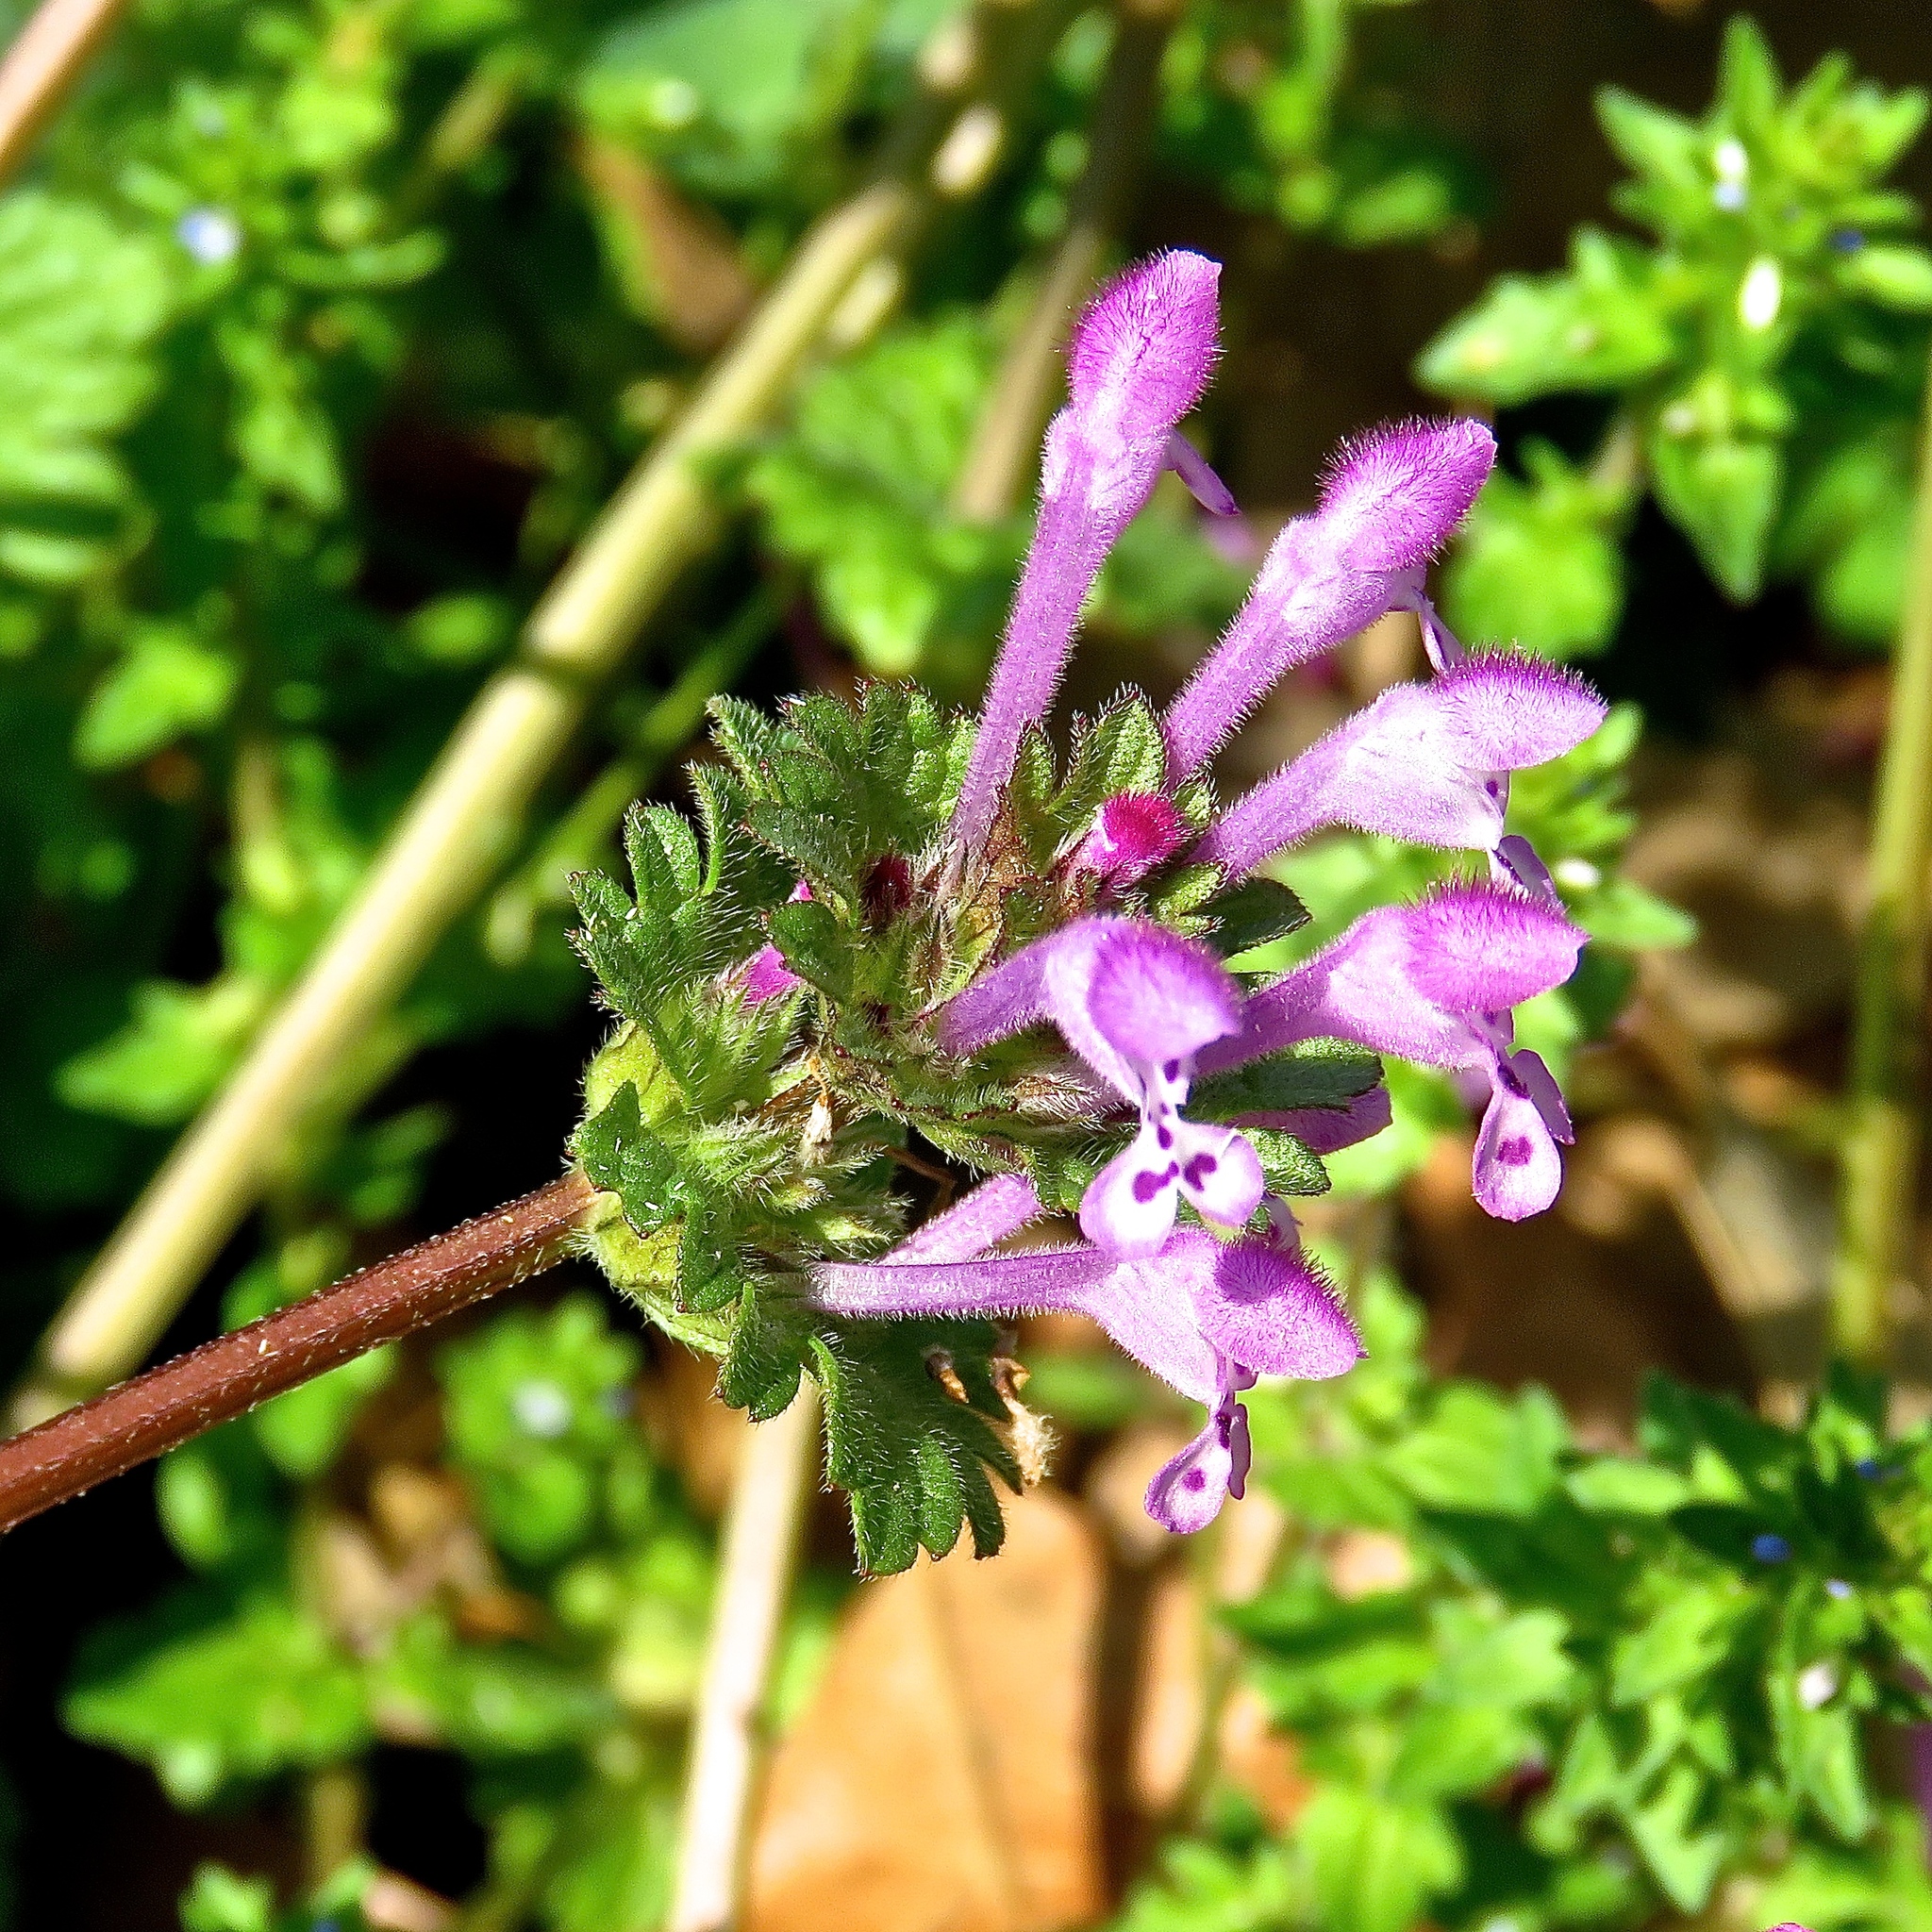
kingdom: Plantae
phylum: Tracheophyta
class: Magnoliopsida
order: Lamiales
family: Lamiaceae
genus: Lamium
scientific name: Lamium amplexicaule
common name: Henbit dead-nettle
